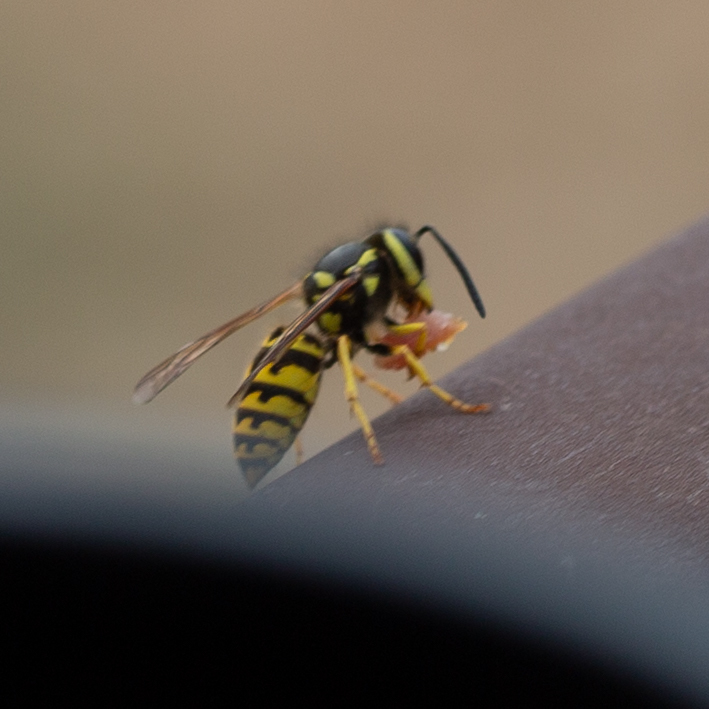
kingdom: Animalia
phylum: Arthropoda
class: Insecta
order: Hymenoptera
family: Vespidae
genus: Vespula
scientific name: Vespula pensylvanica
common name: Western yellowjacket
